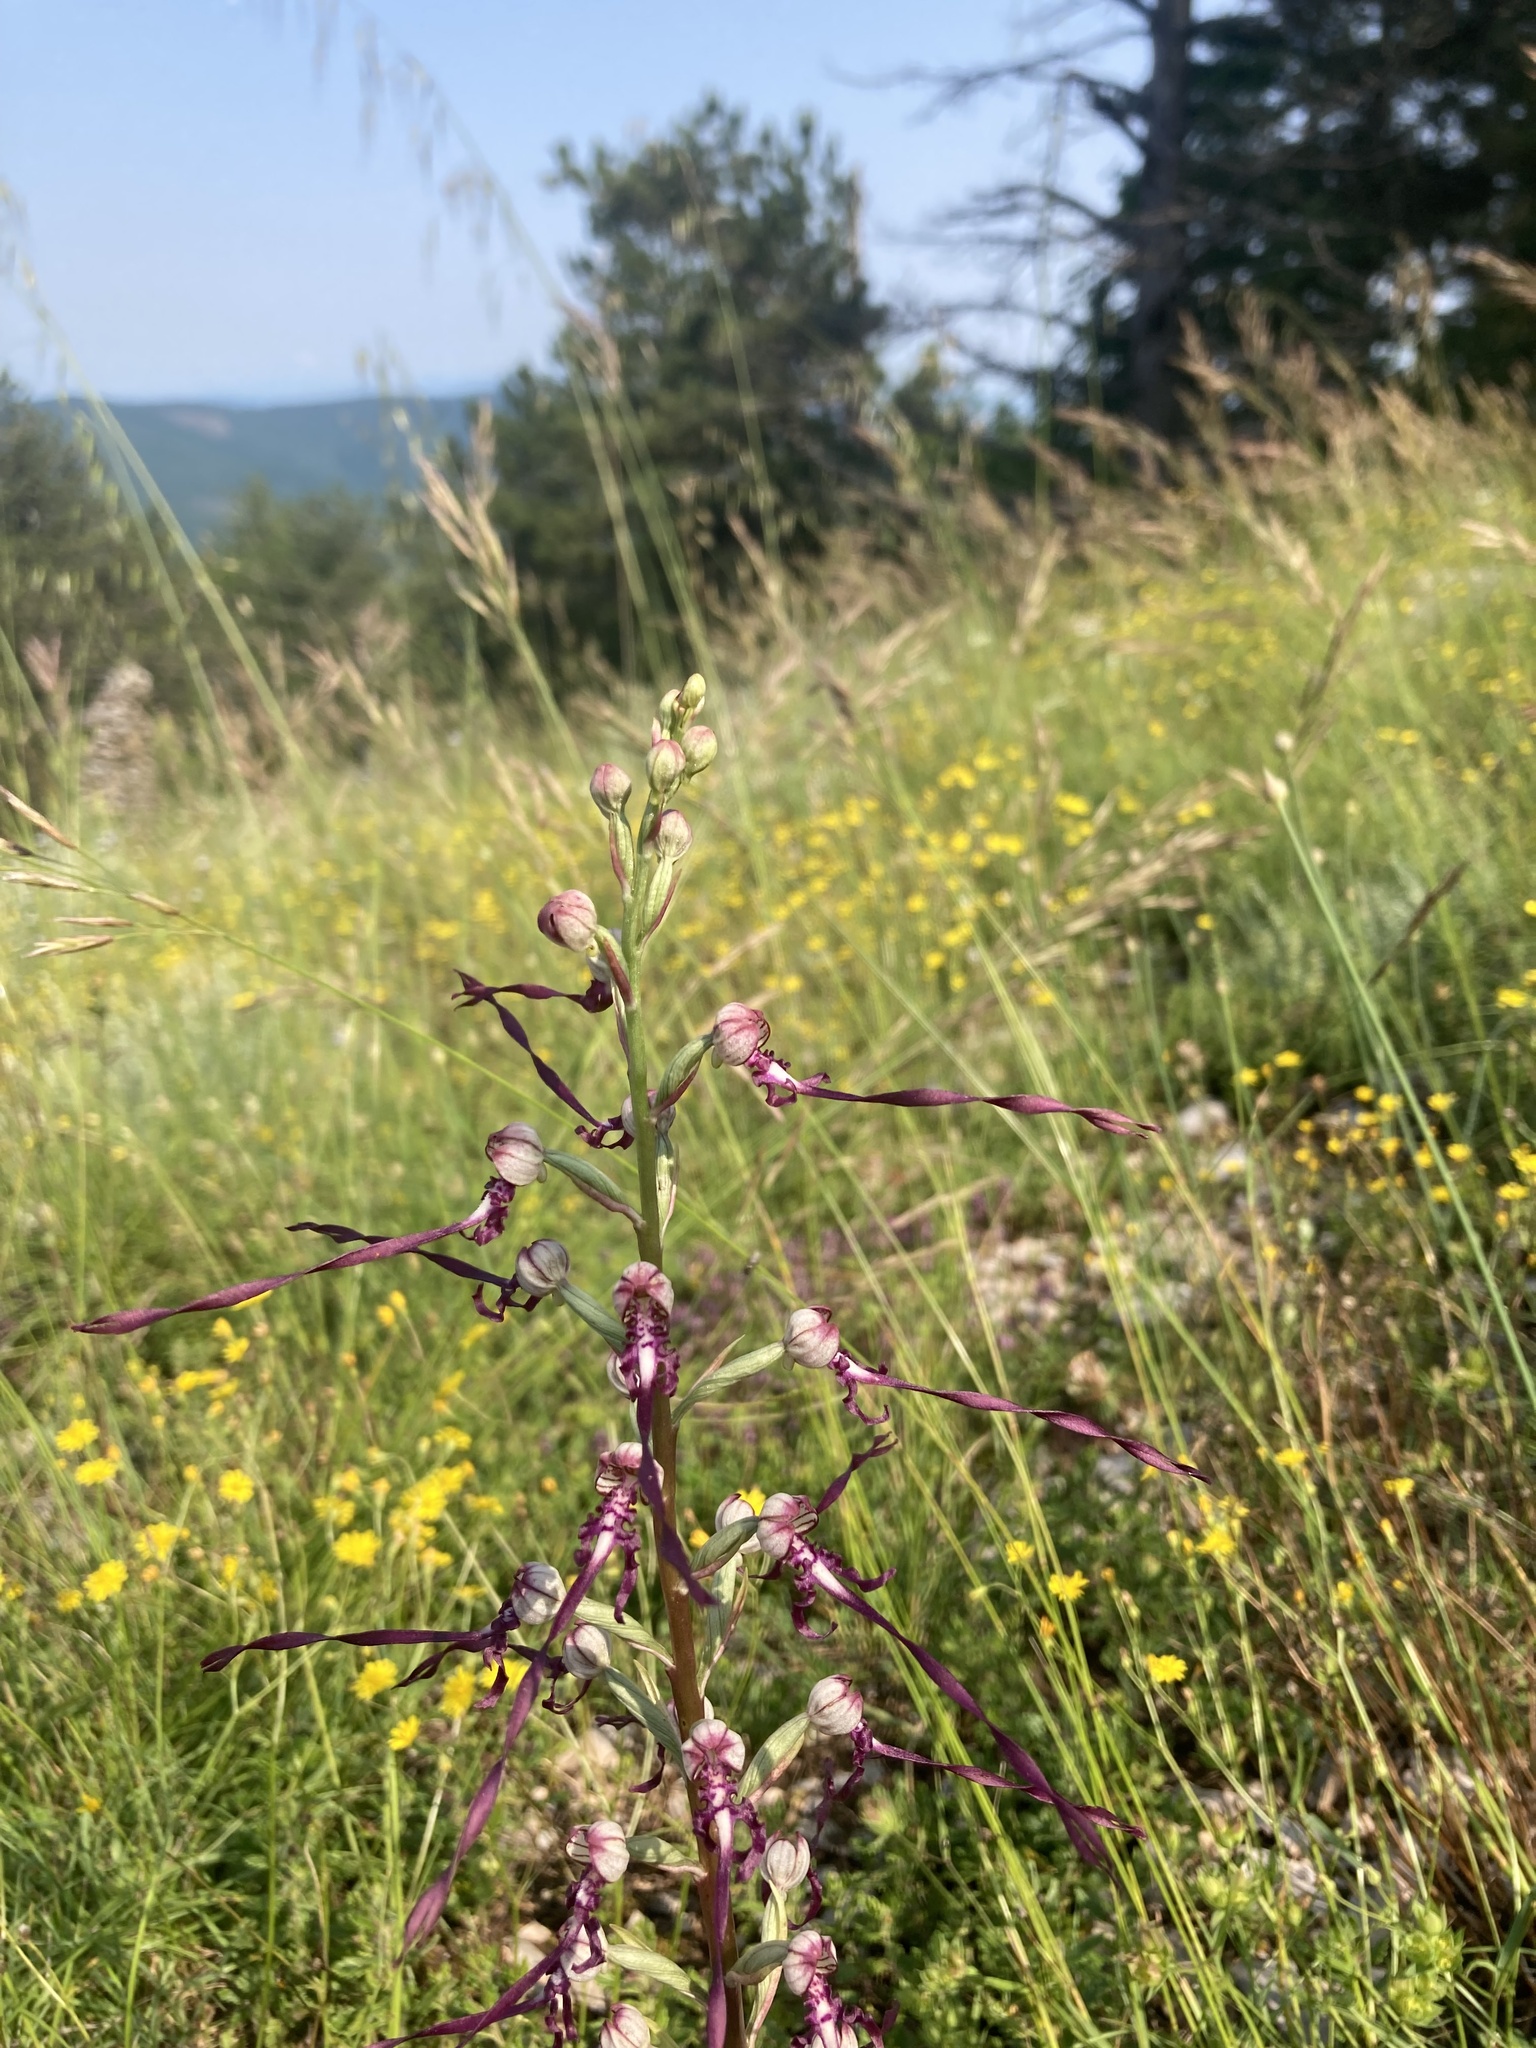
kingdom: Plantae
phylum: Tracheophyta
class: Liliopsida
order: Asparagales
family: Orchidaceae
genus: Himantoglossum
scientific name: Himantoglossum adriaticum
